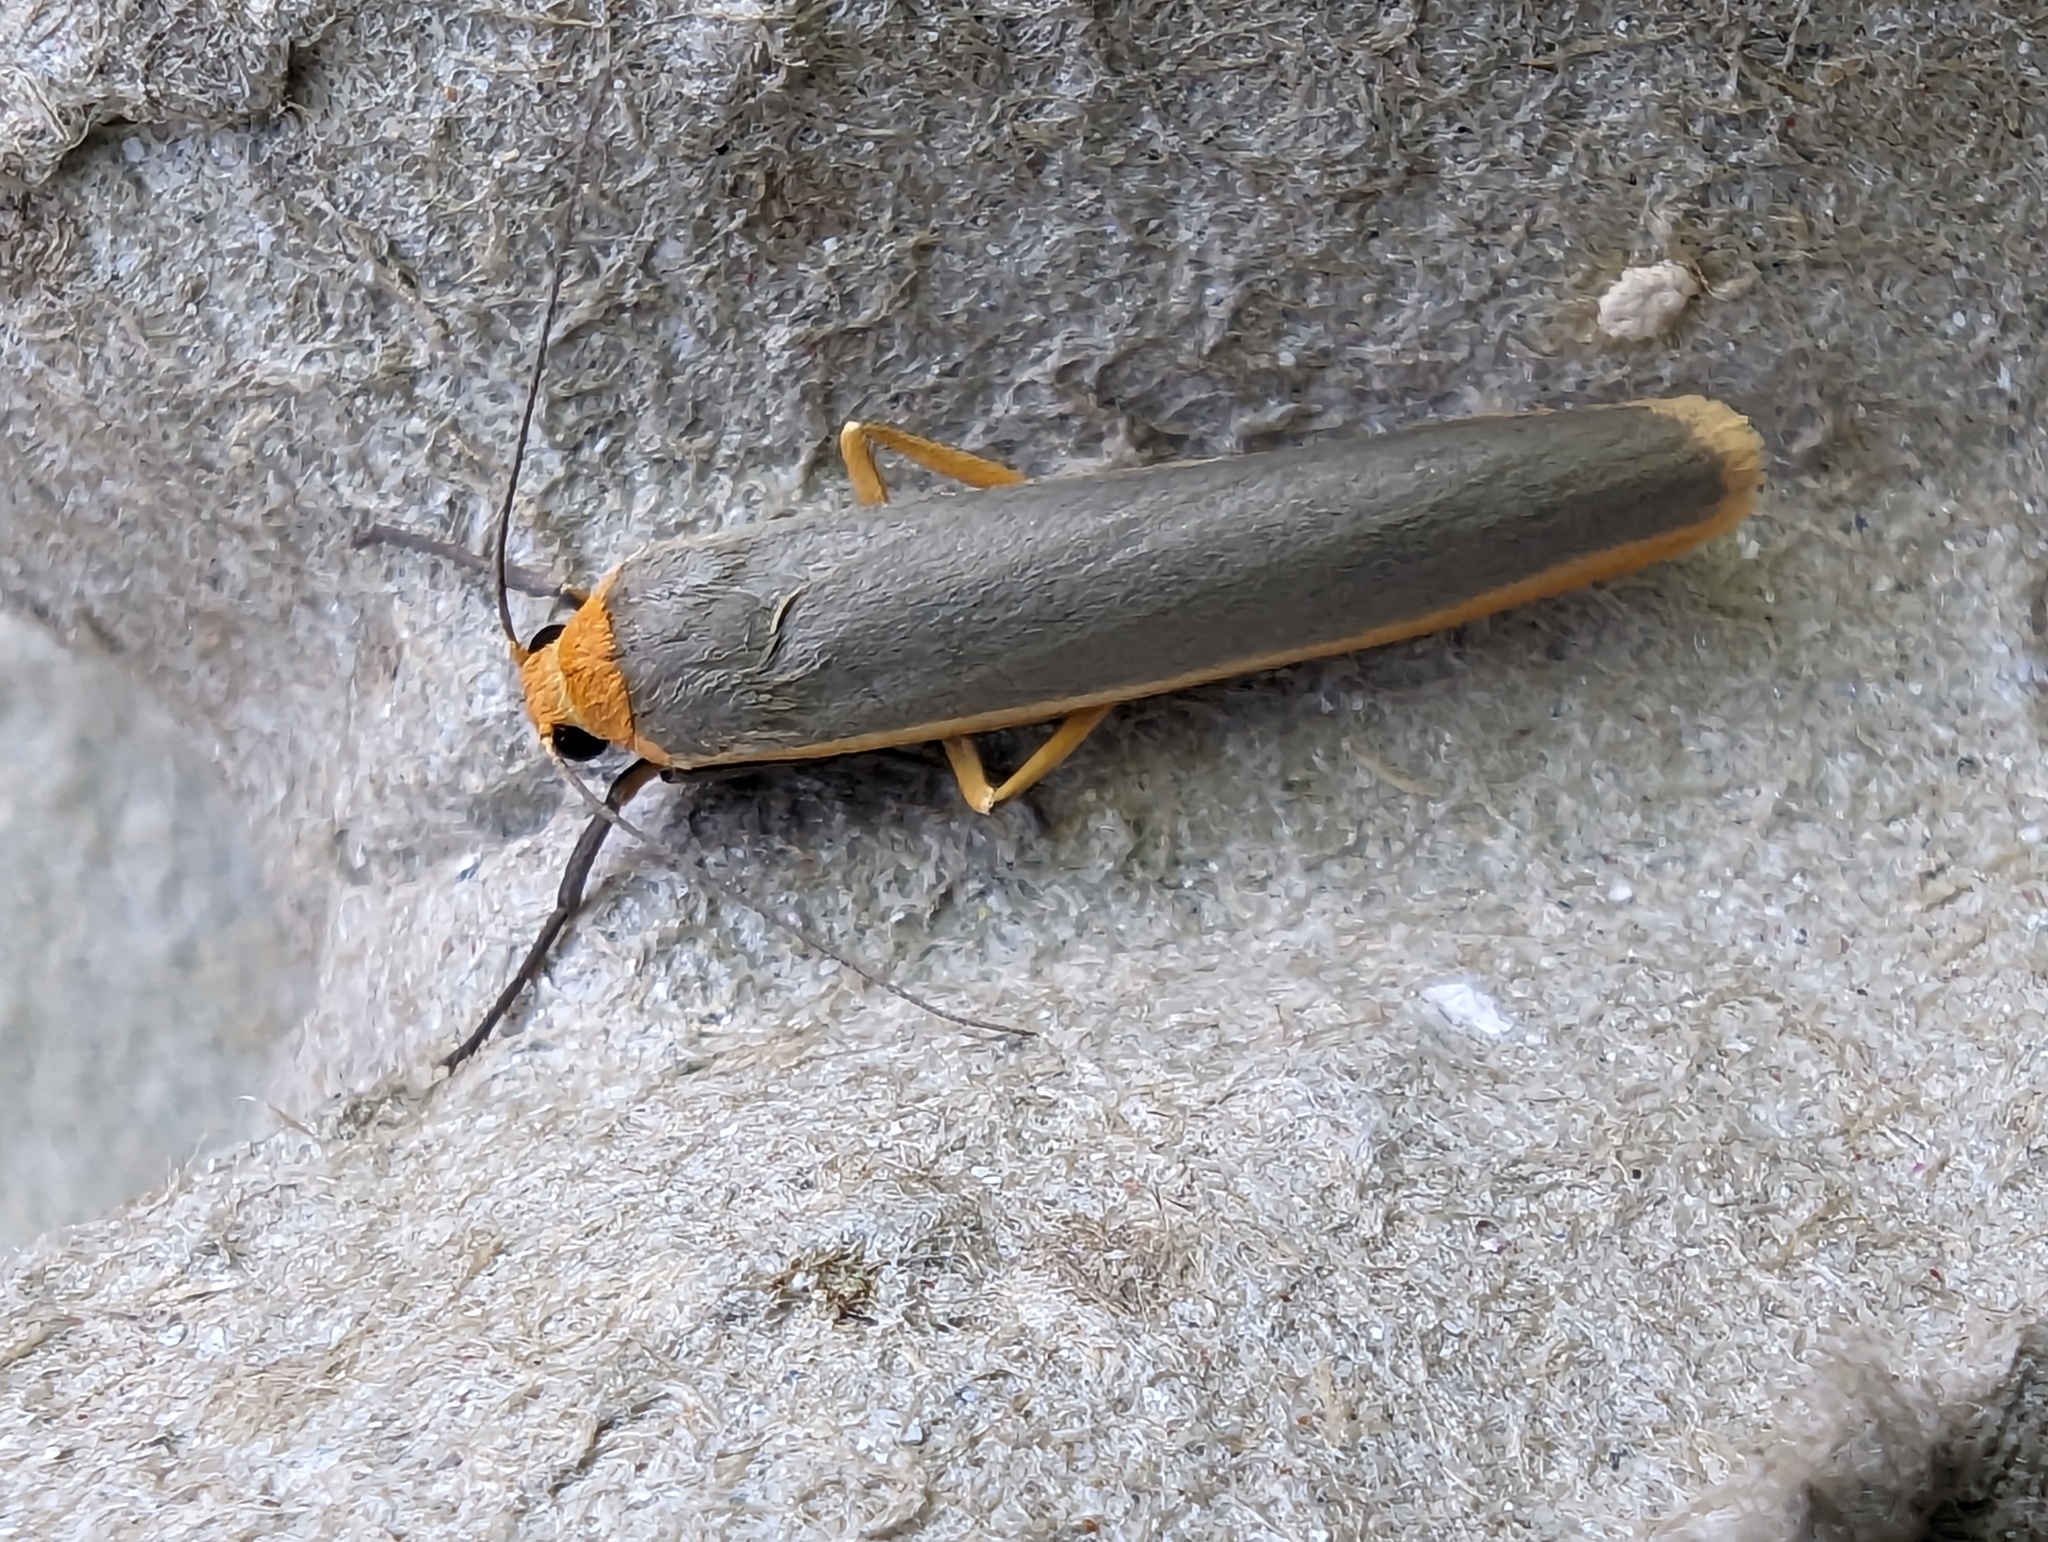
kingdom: Animalia
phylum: Arthropoda
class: Insecta
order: Lepidoptera
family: Erebidae
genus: Manulea
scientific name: Manulea complana
